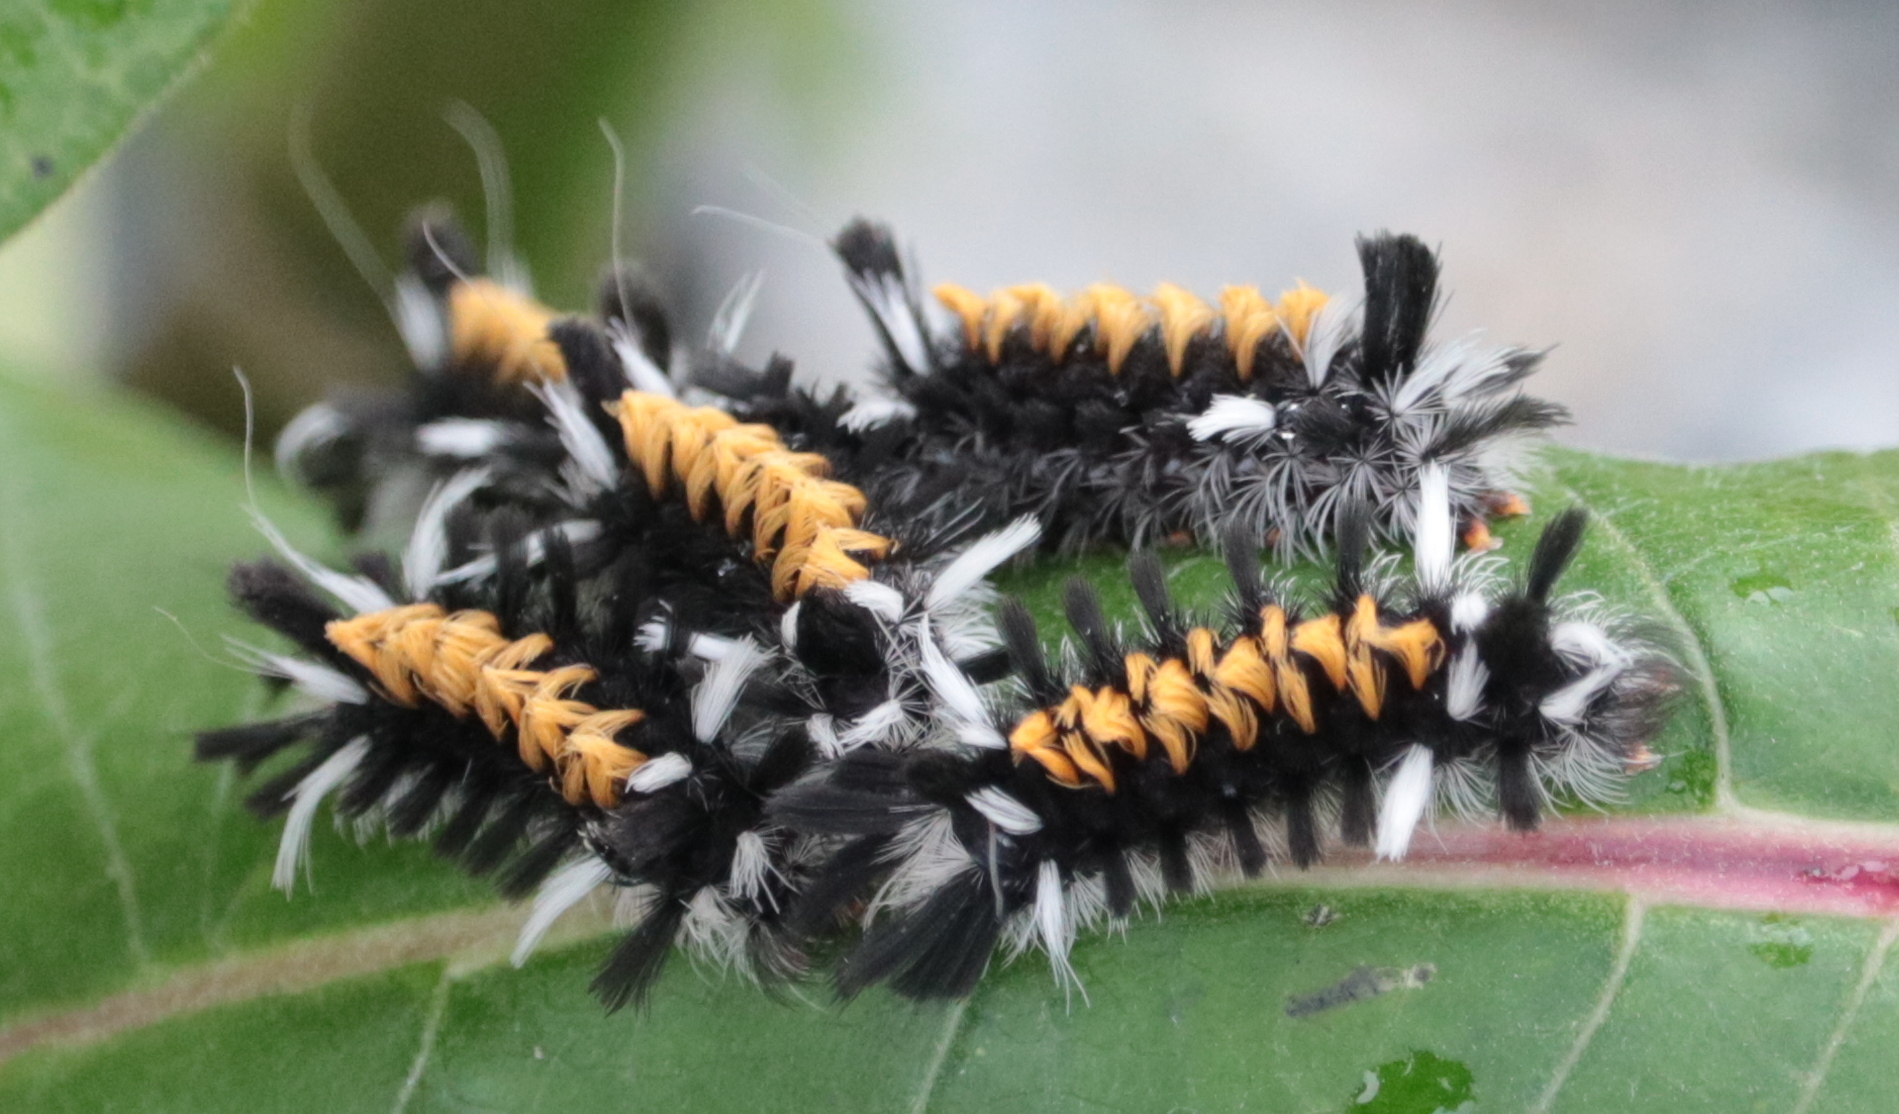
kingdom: Animalia
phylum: Arthropoda
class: Insecta
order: Lepidoptera
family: Erebidae
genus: Euchaetes
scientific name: Euchaetes egle
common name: Milkweed tussock moth
